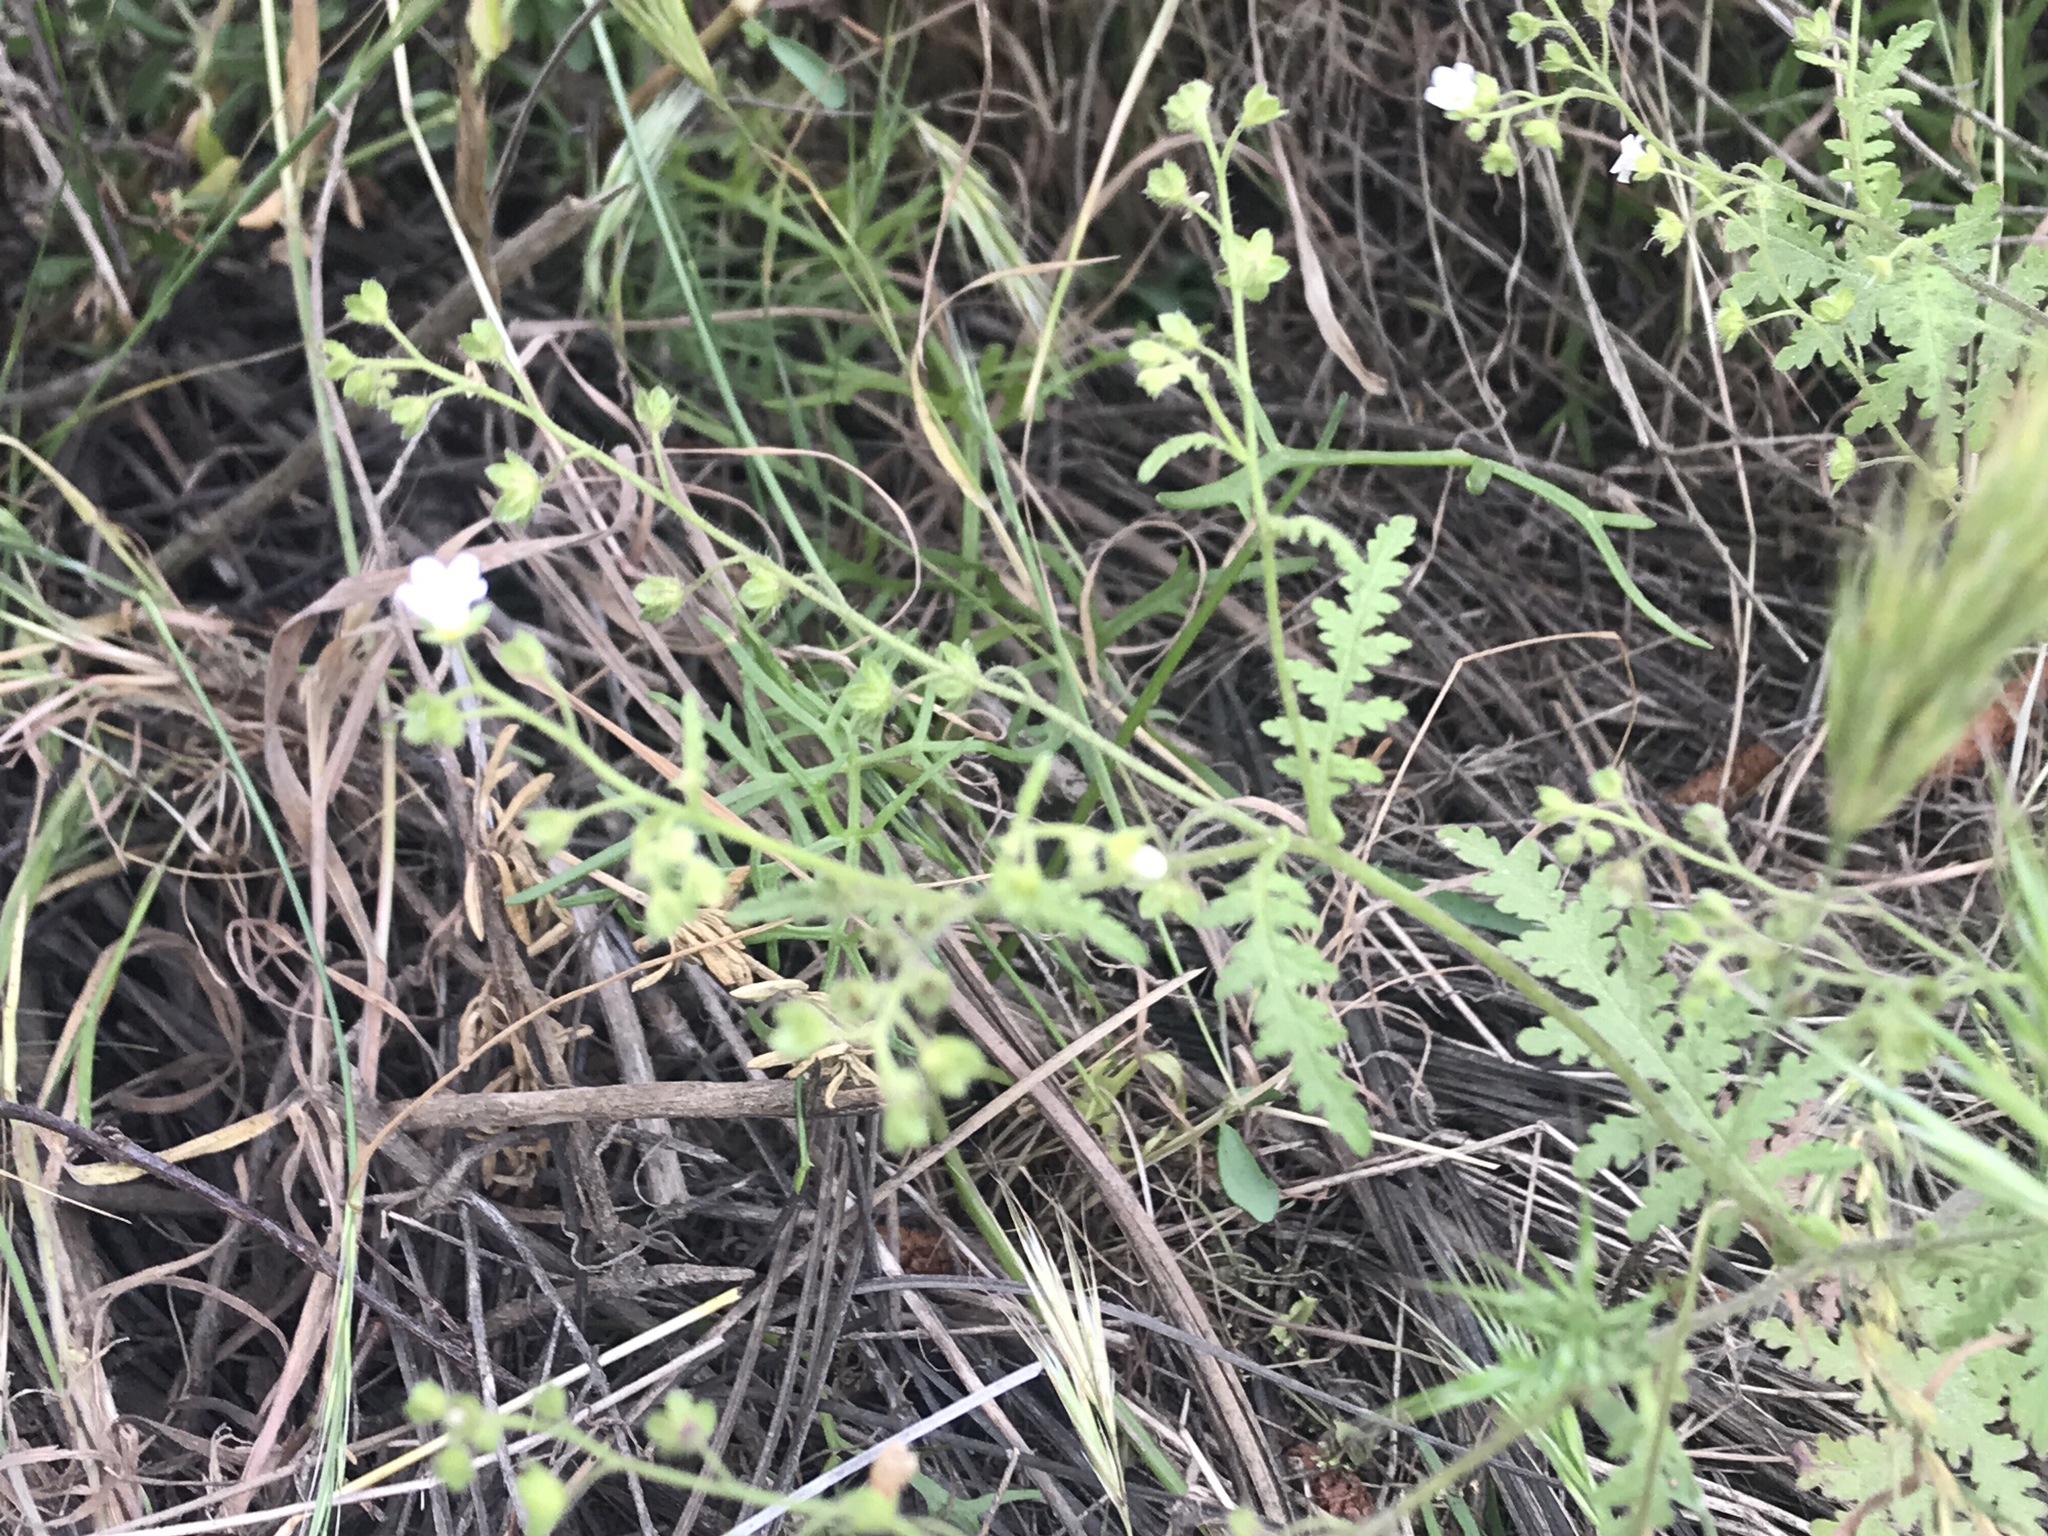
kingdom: Plantae
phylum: Tracheophyta
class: Magnoliopsida
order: Boraginales
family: Hydrophyllaceae
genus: Eucrypta
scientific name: Eucrypta chrysanthemifolia
